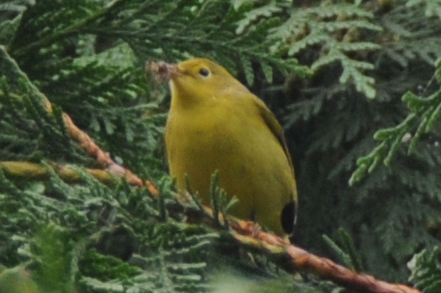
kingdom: Animalia
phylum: Chordata
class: Aves
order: Passeriformes
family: Parulidae
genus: Setophaga
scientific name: Setophaga petechia
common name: Yellow warbler
